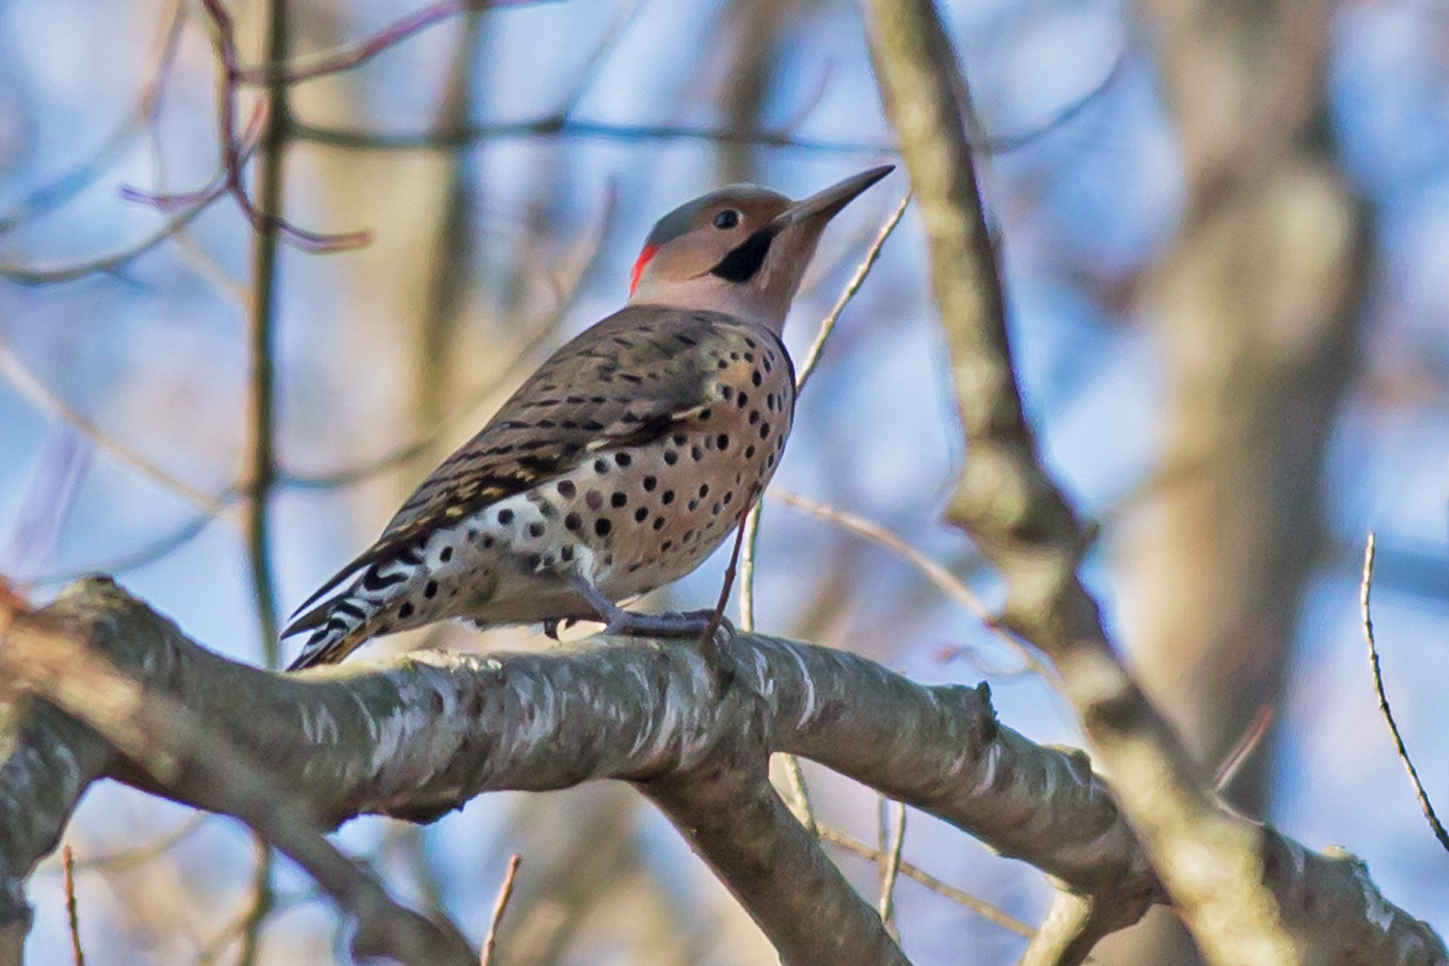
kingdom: Animalia
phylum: Chordata
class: Aves
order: Piciformes
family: Picidae
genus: Colaptes
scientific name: Colaptes auratus
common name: Northern flicker
